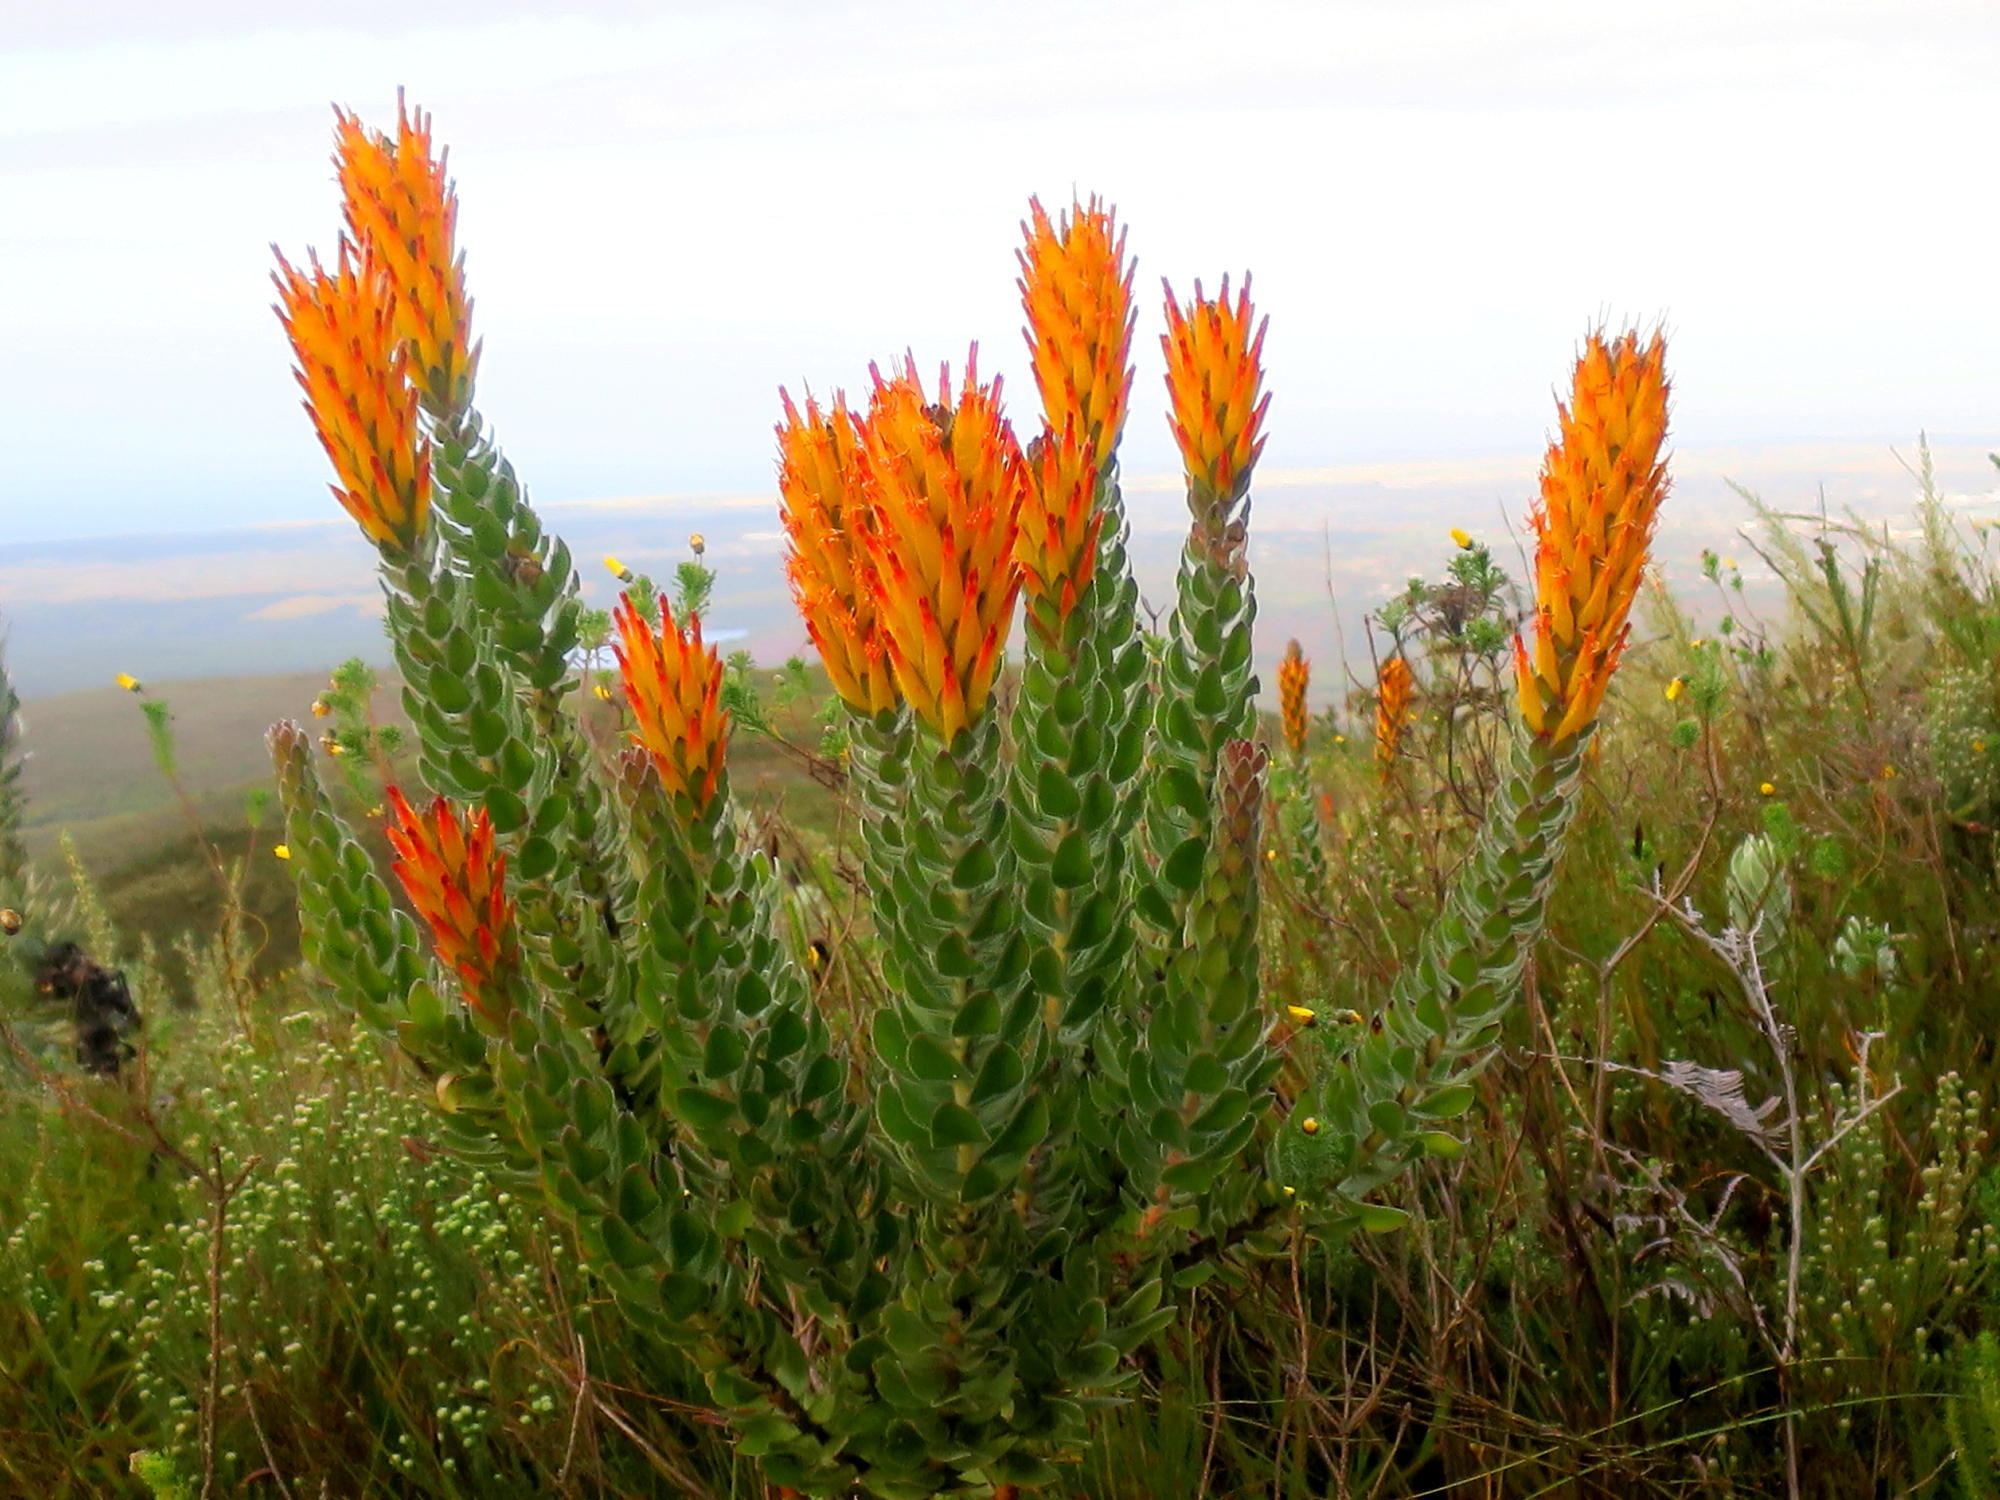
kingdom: Plantae
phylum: Tracheophyta
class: Magnoliopsida
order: Proteales
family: Proteaceae
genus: Mimetes
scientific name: Mimetes pauciflora
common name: Three-flowered pagoda
